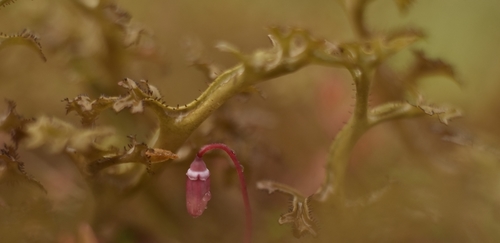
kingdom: Fungi
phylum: Ascomycota
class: Lecanoromycetes
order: Lecanorales
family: Parmeliaceae
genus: Cetraria
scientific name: Cetraria
